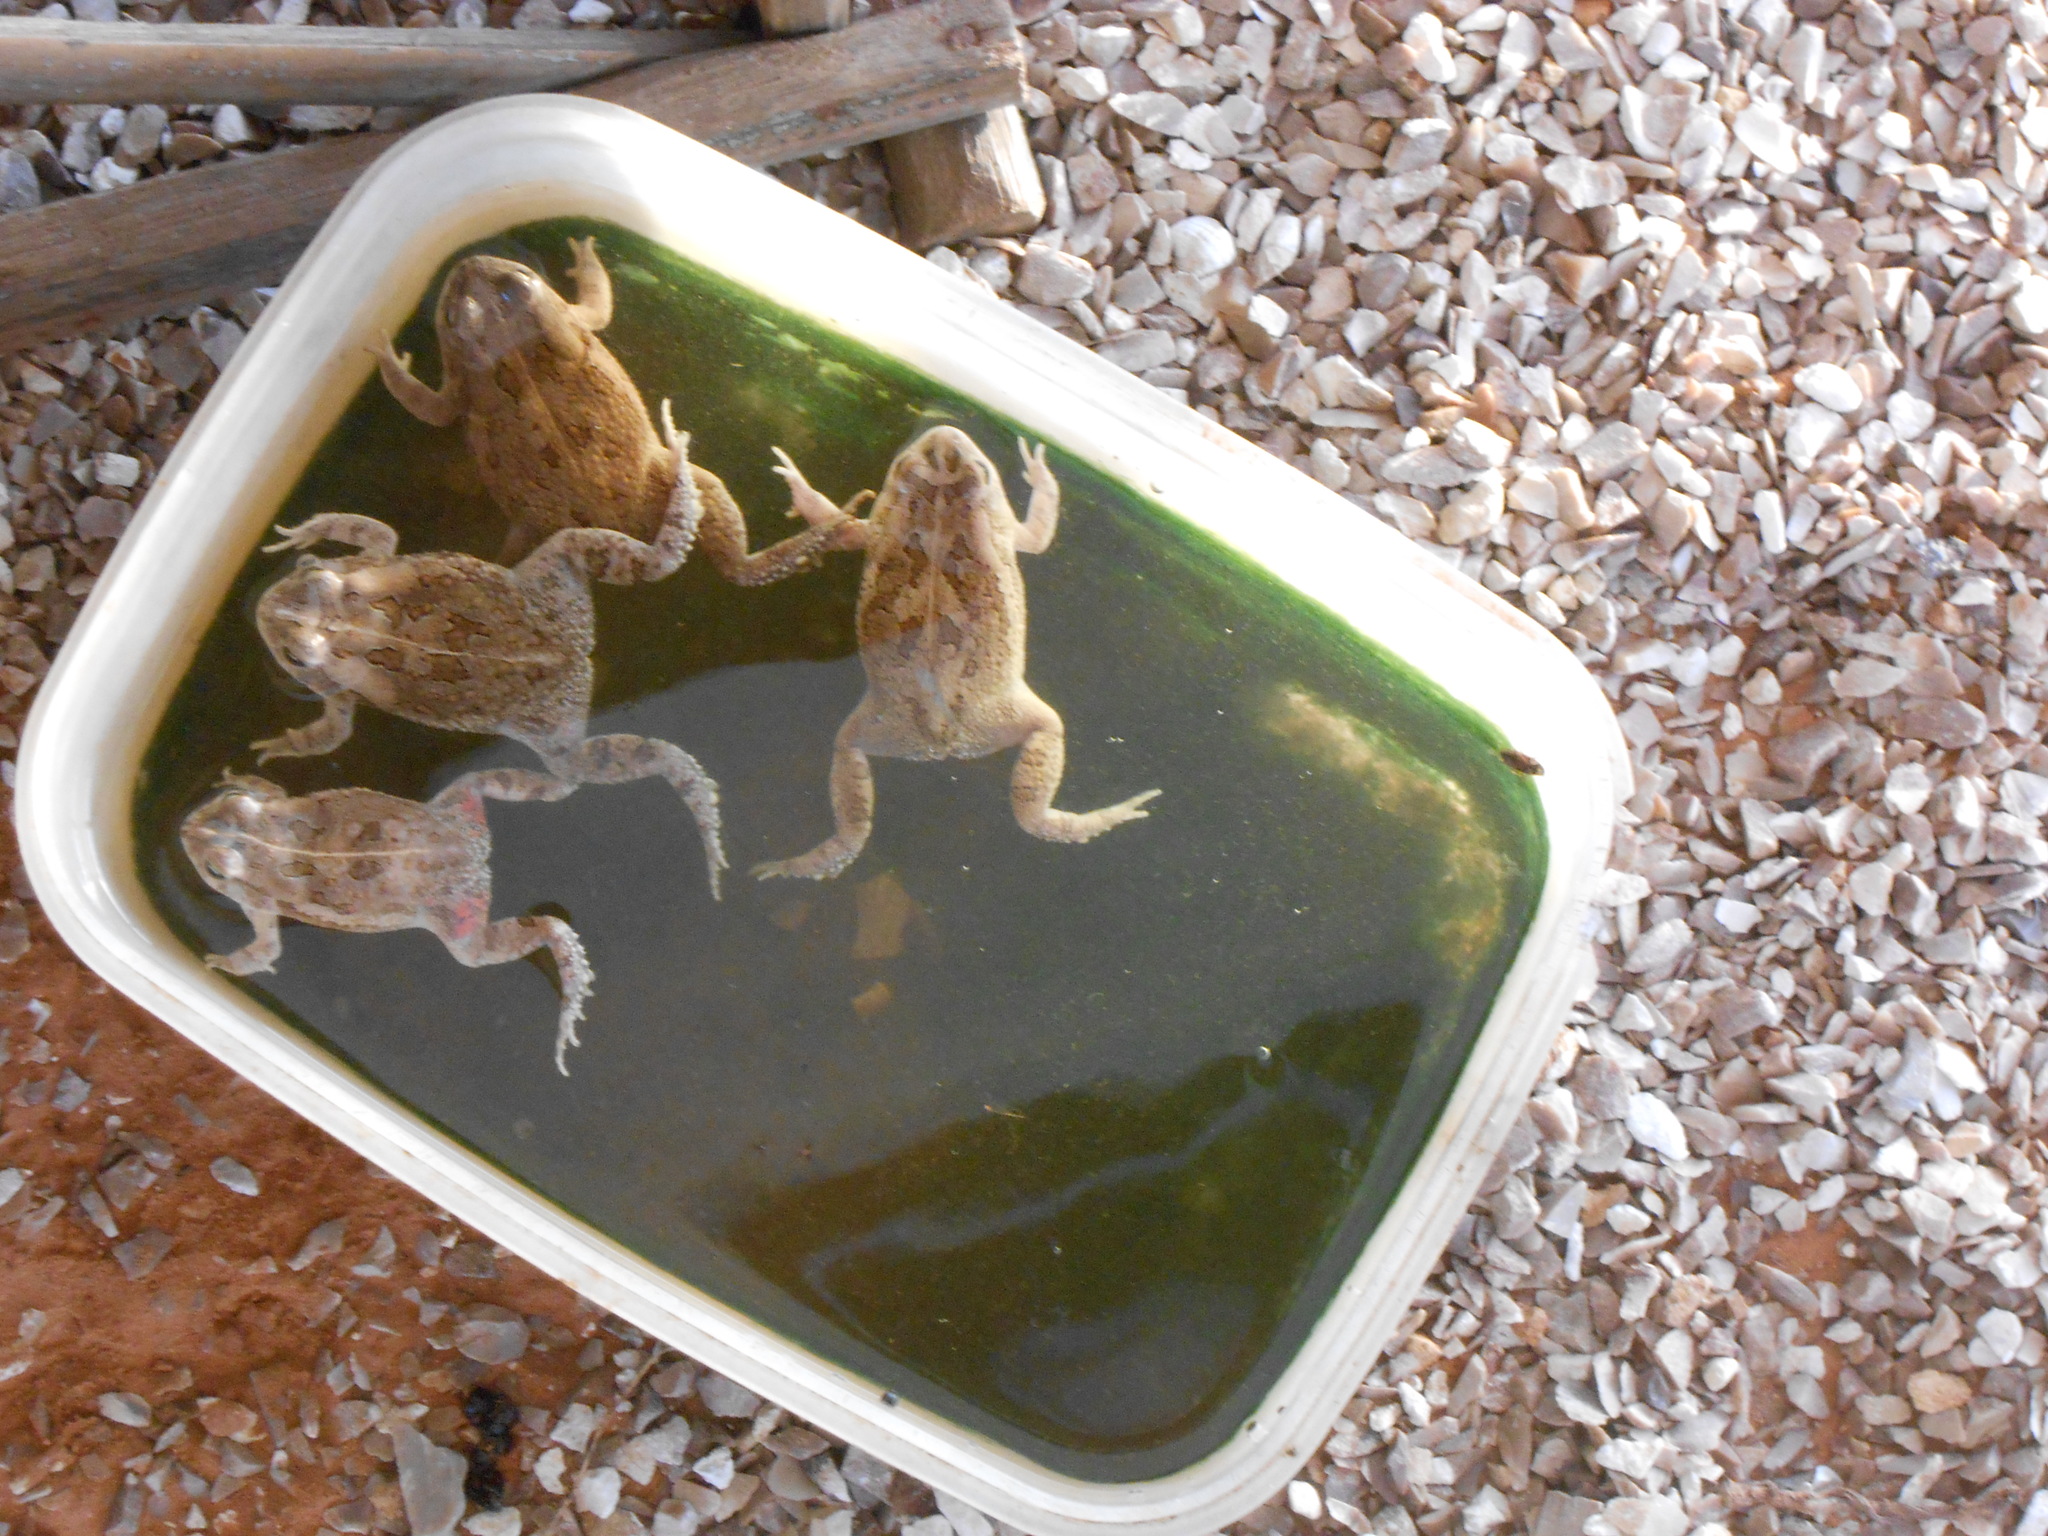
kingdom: Animalia
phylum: Chordata
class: Amphibia
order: Anura
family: Bufonidae
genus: Sclerophrys
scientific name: Sclerophrys regularis
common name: African common toad
